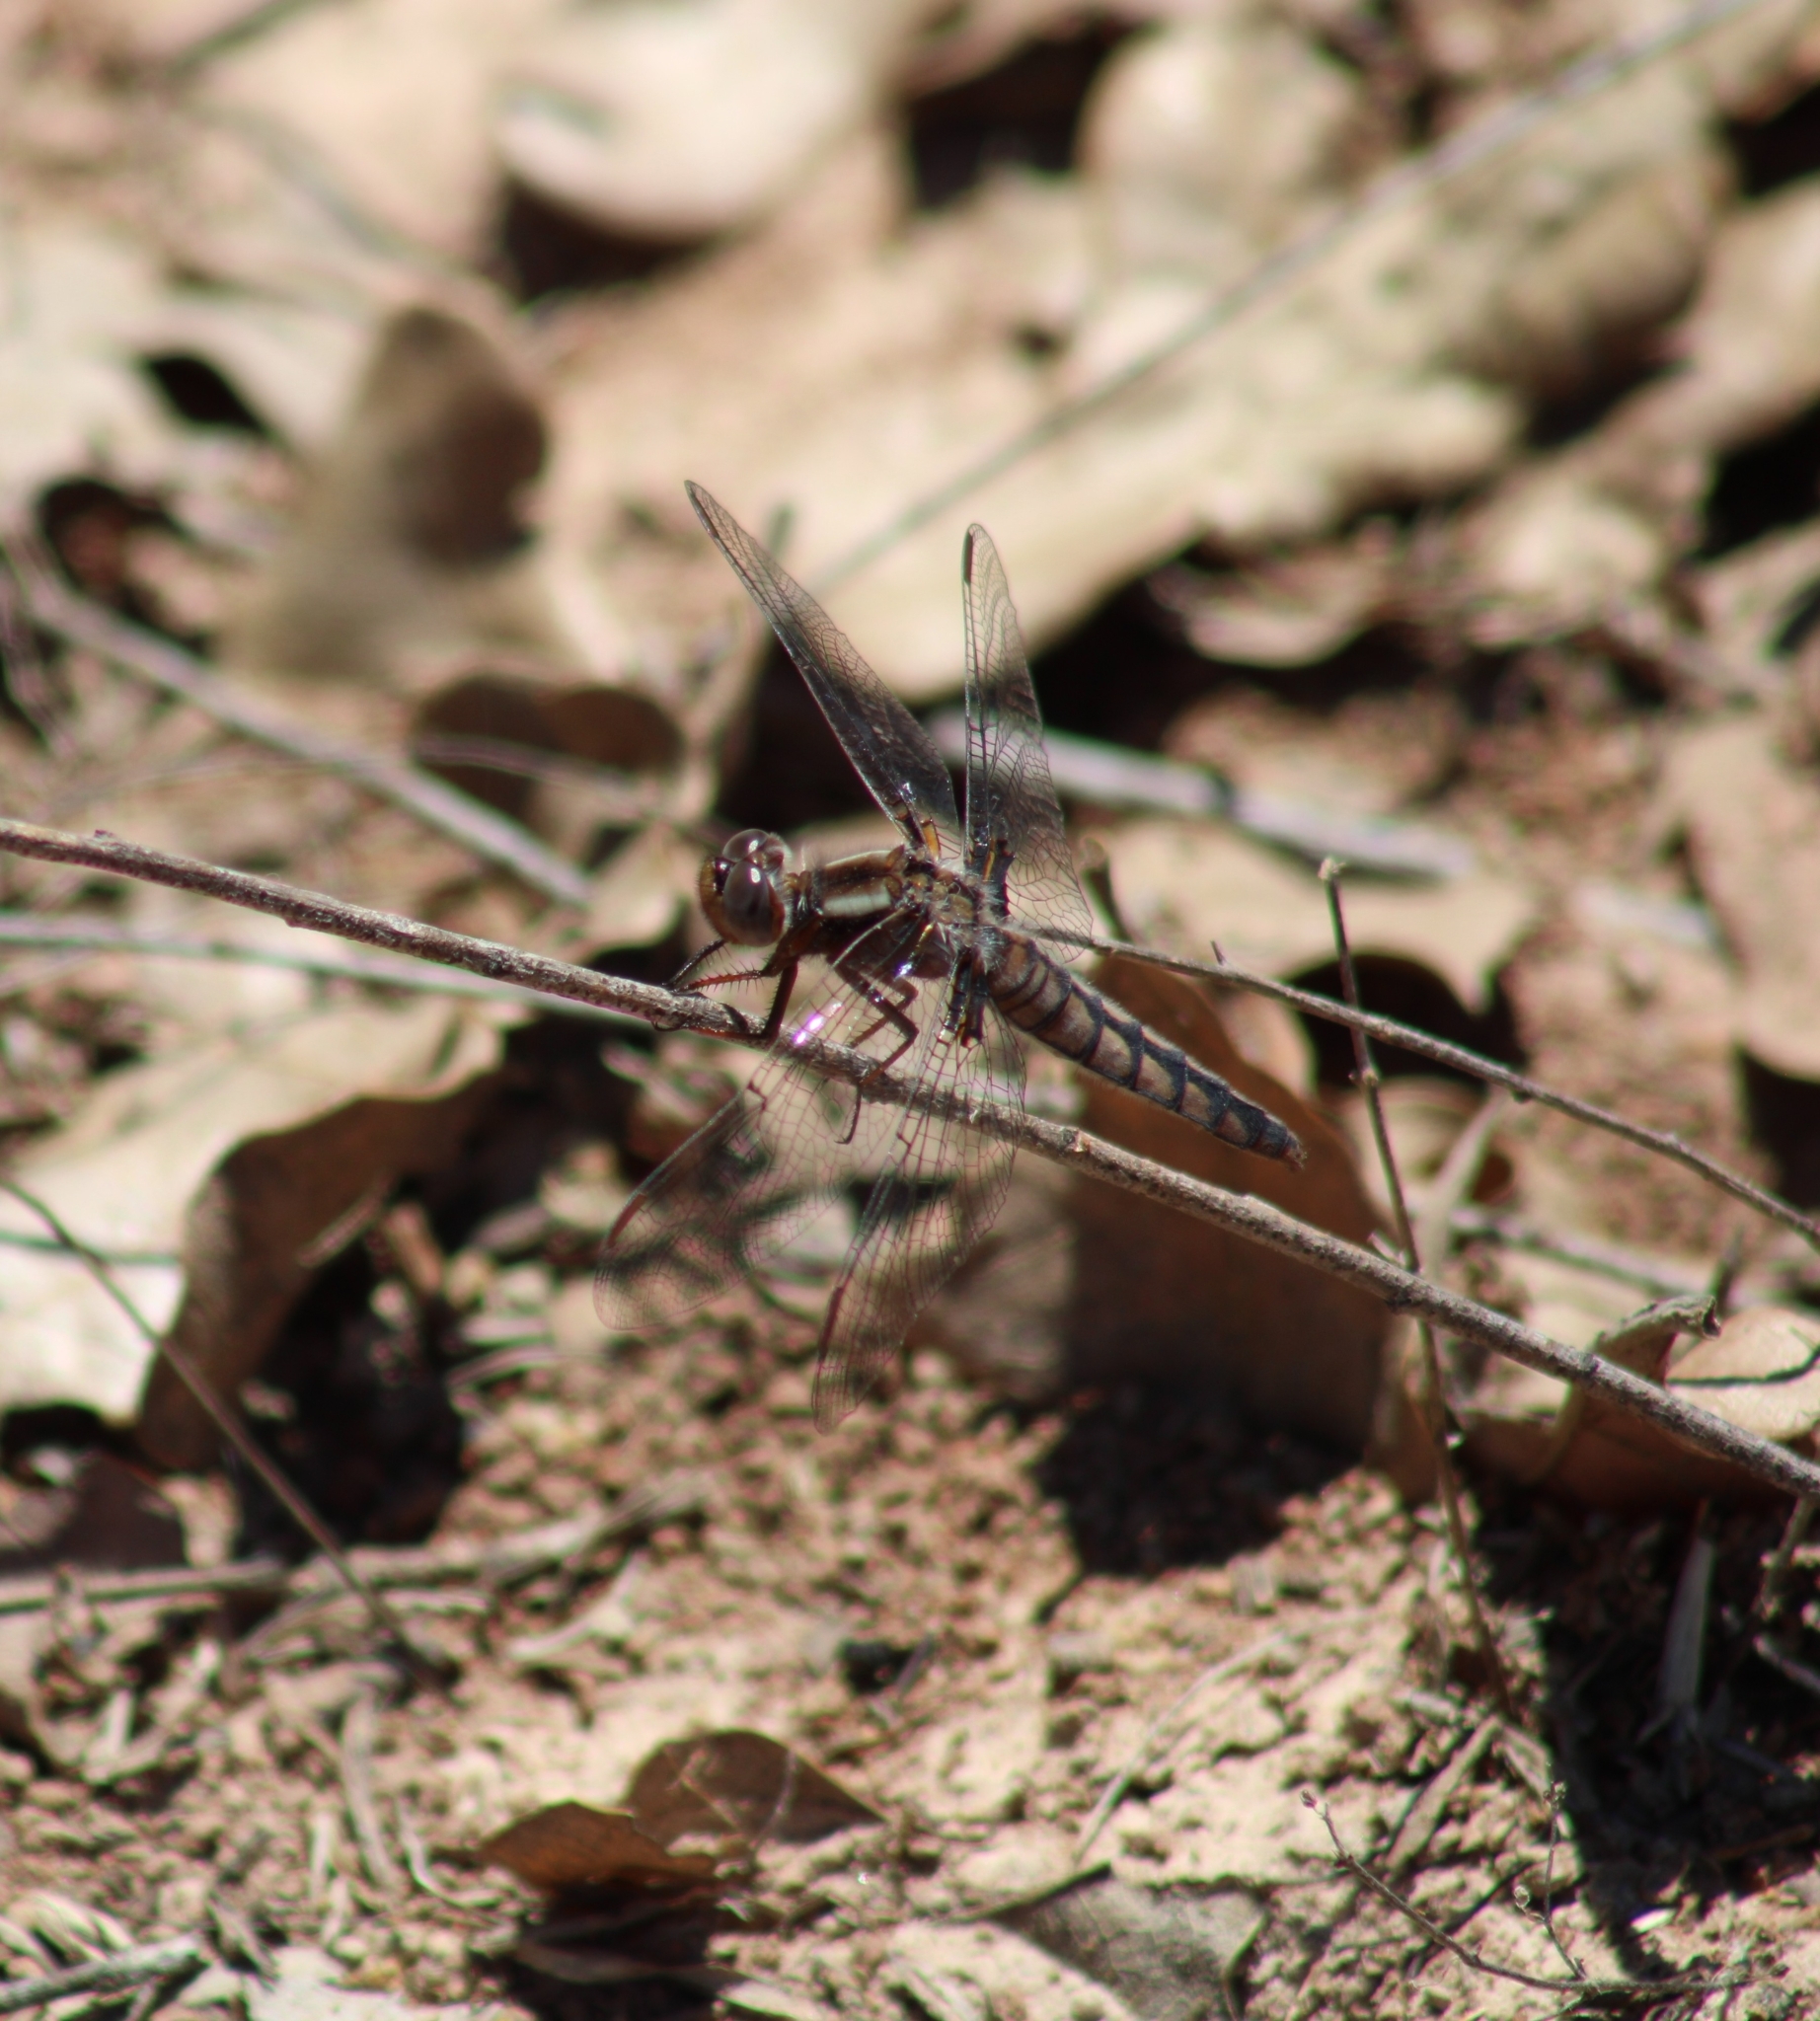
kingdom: Animalia
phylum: Arthropoda
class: Insecta
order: Odonata
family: Libellulidae
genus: Ladona
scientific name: Ladona deplanata
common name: Blue corporal
